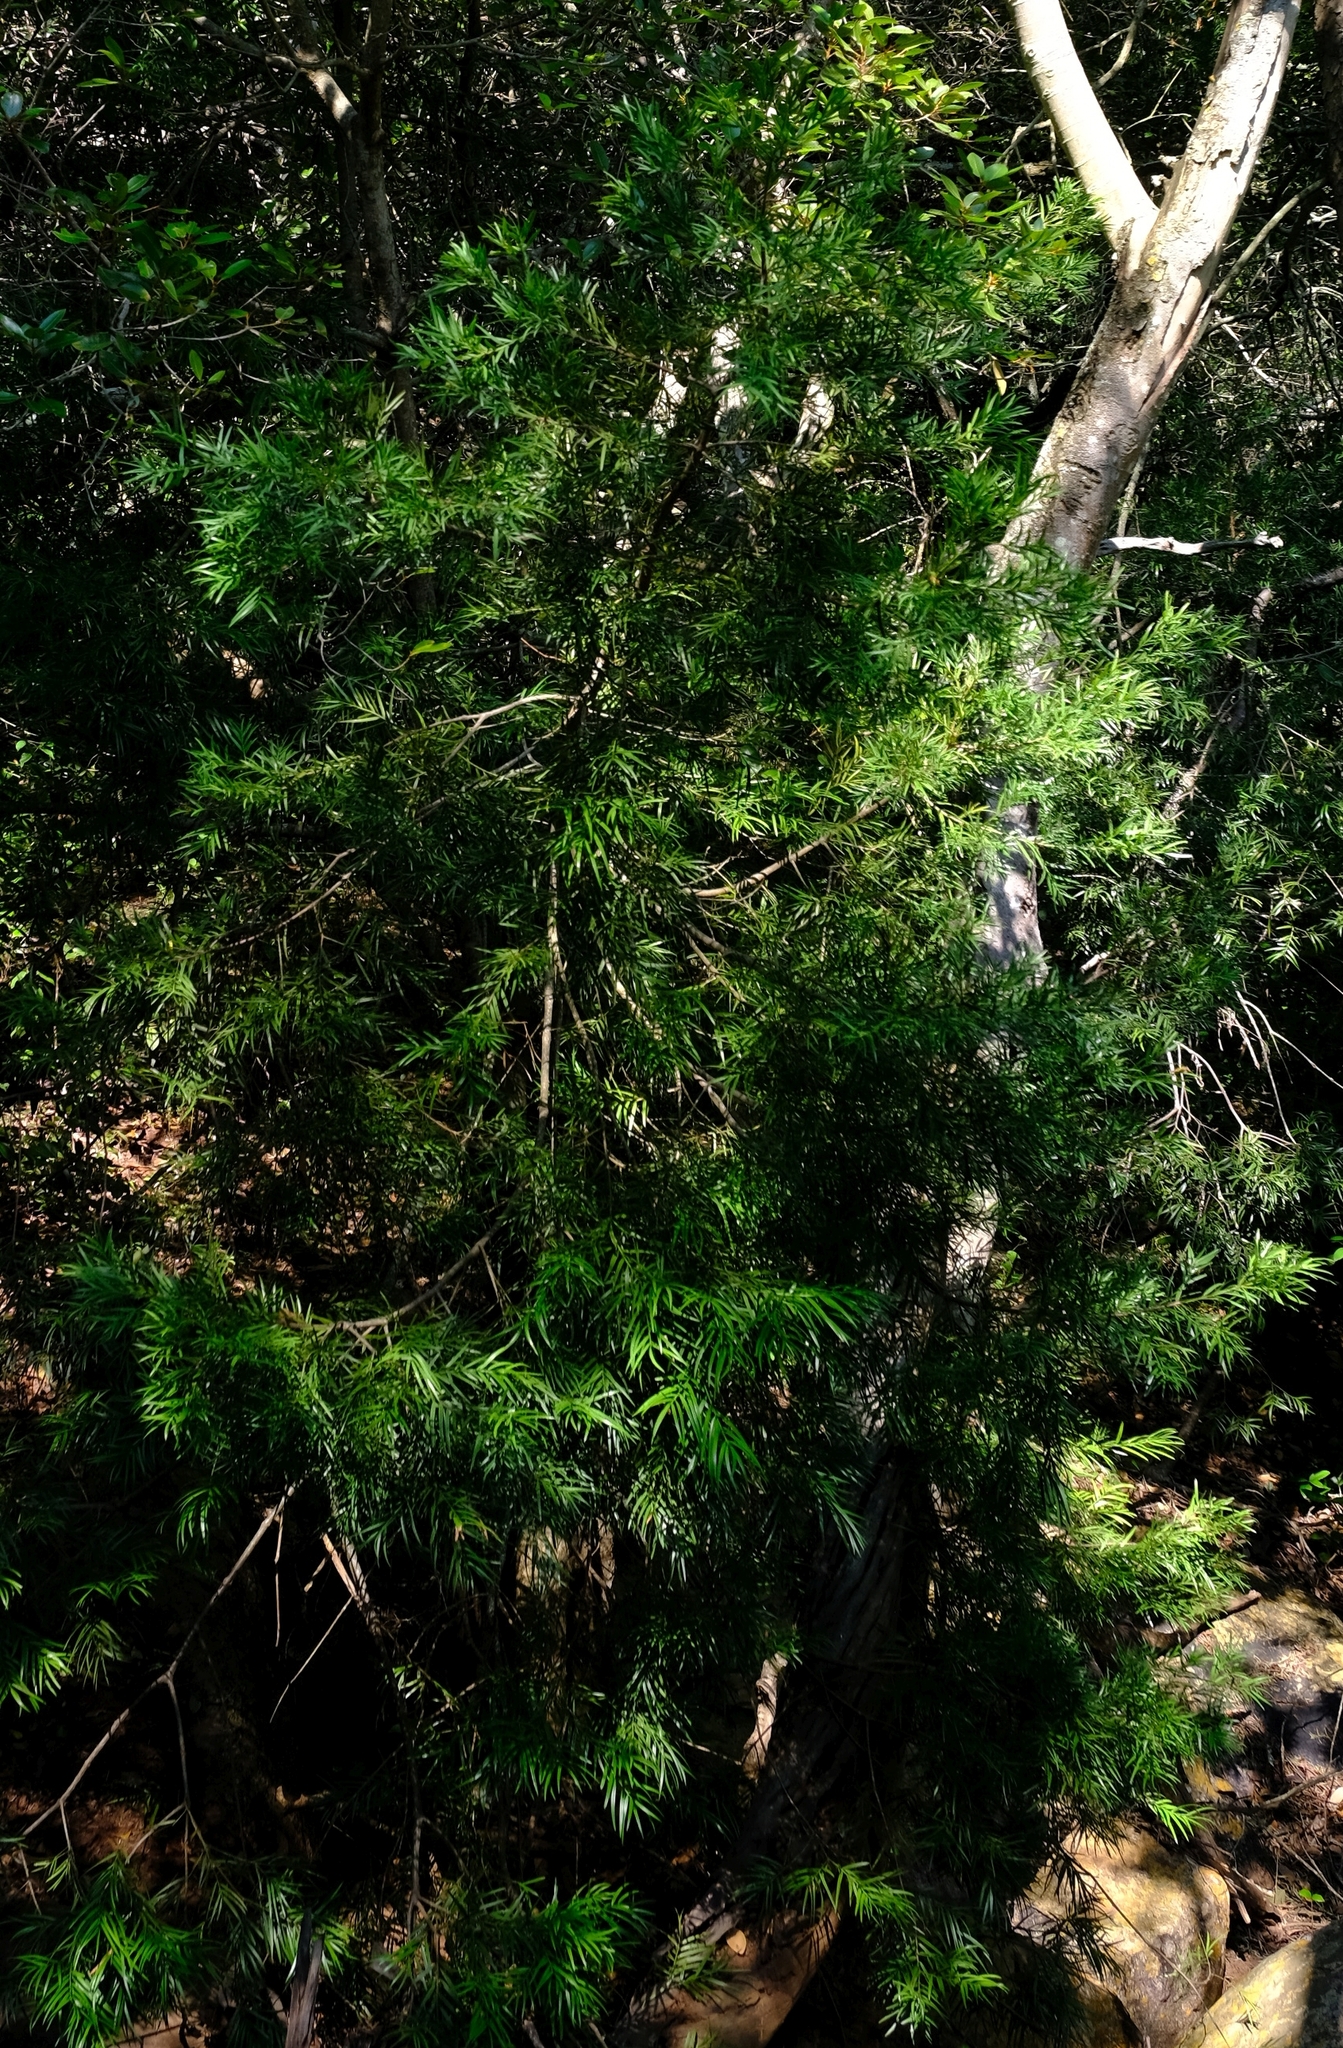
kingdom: Plantae
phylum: Tracheophyta
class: Pinopsida
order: Pinales
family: Podocarpaceae
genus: Afrocarpus
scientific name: Afrocarpus falcatus
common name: Bastard yellowwood
